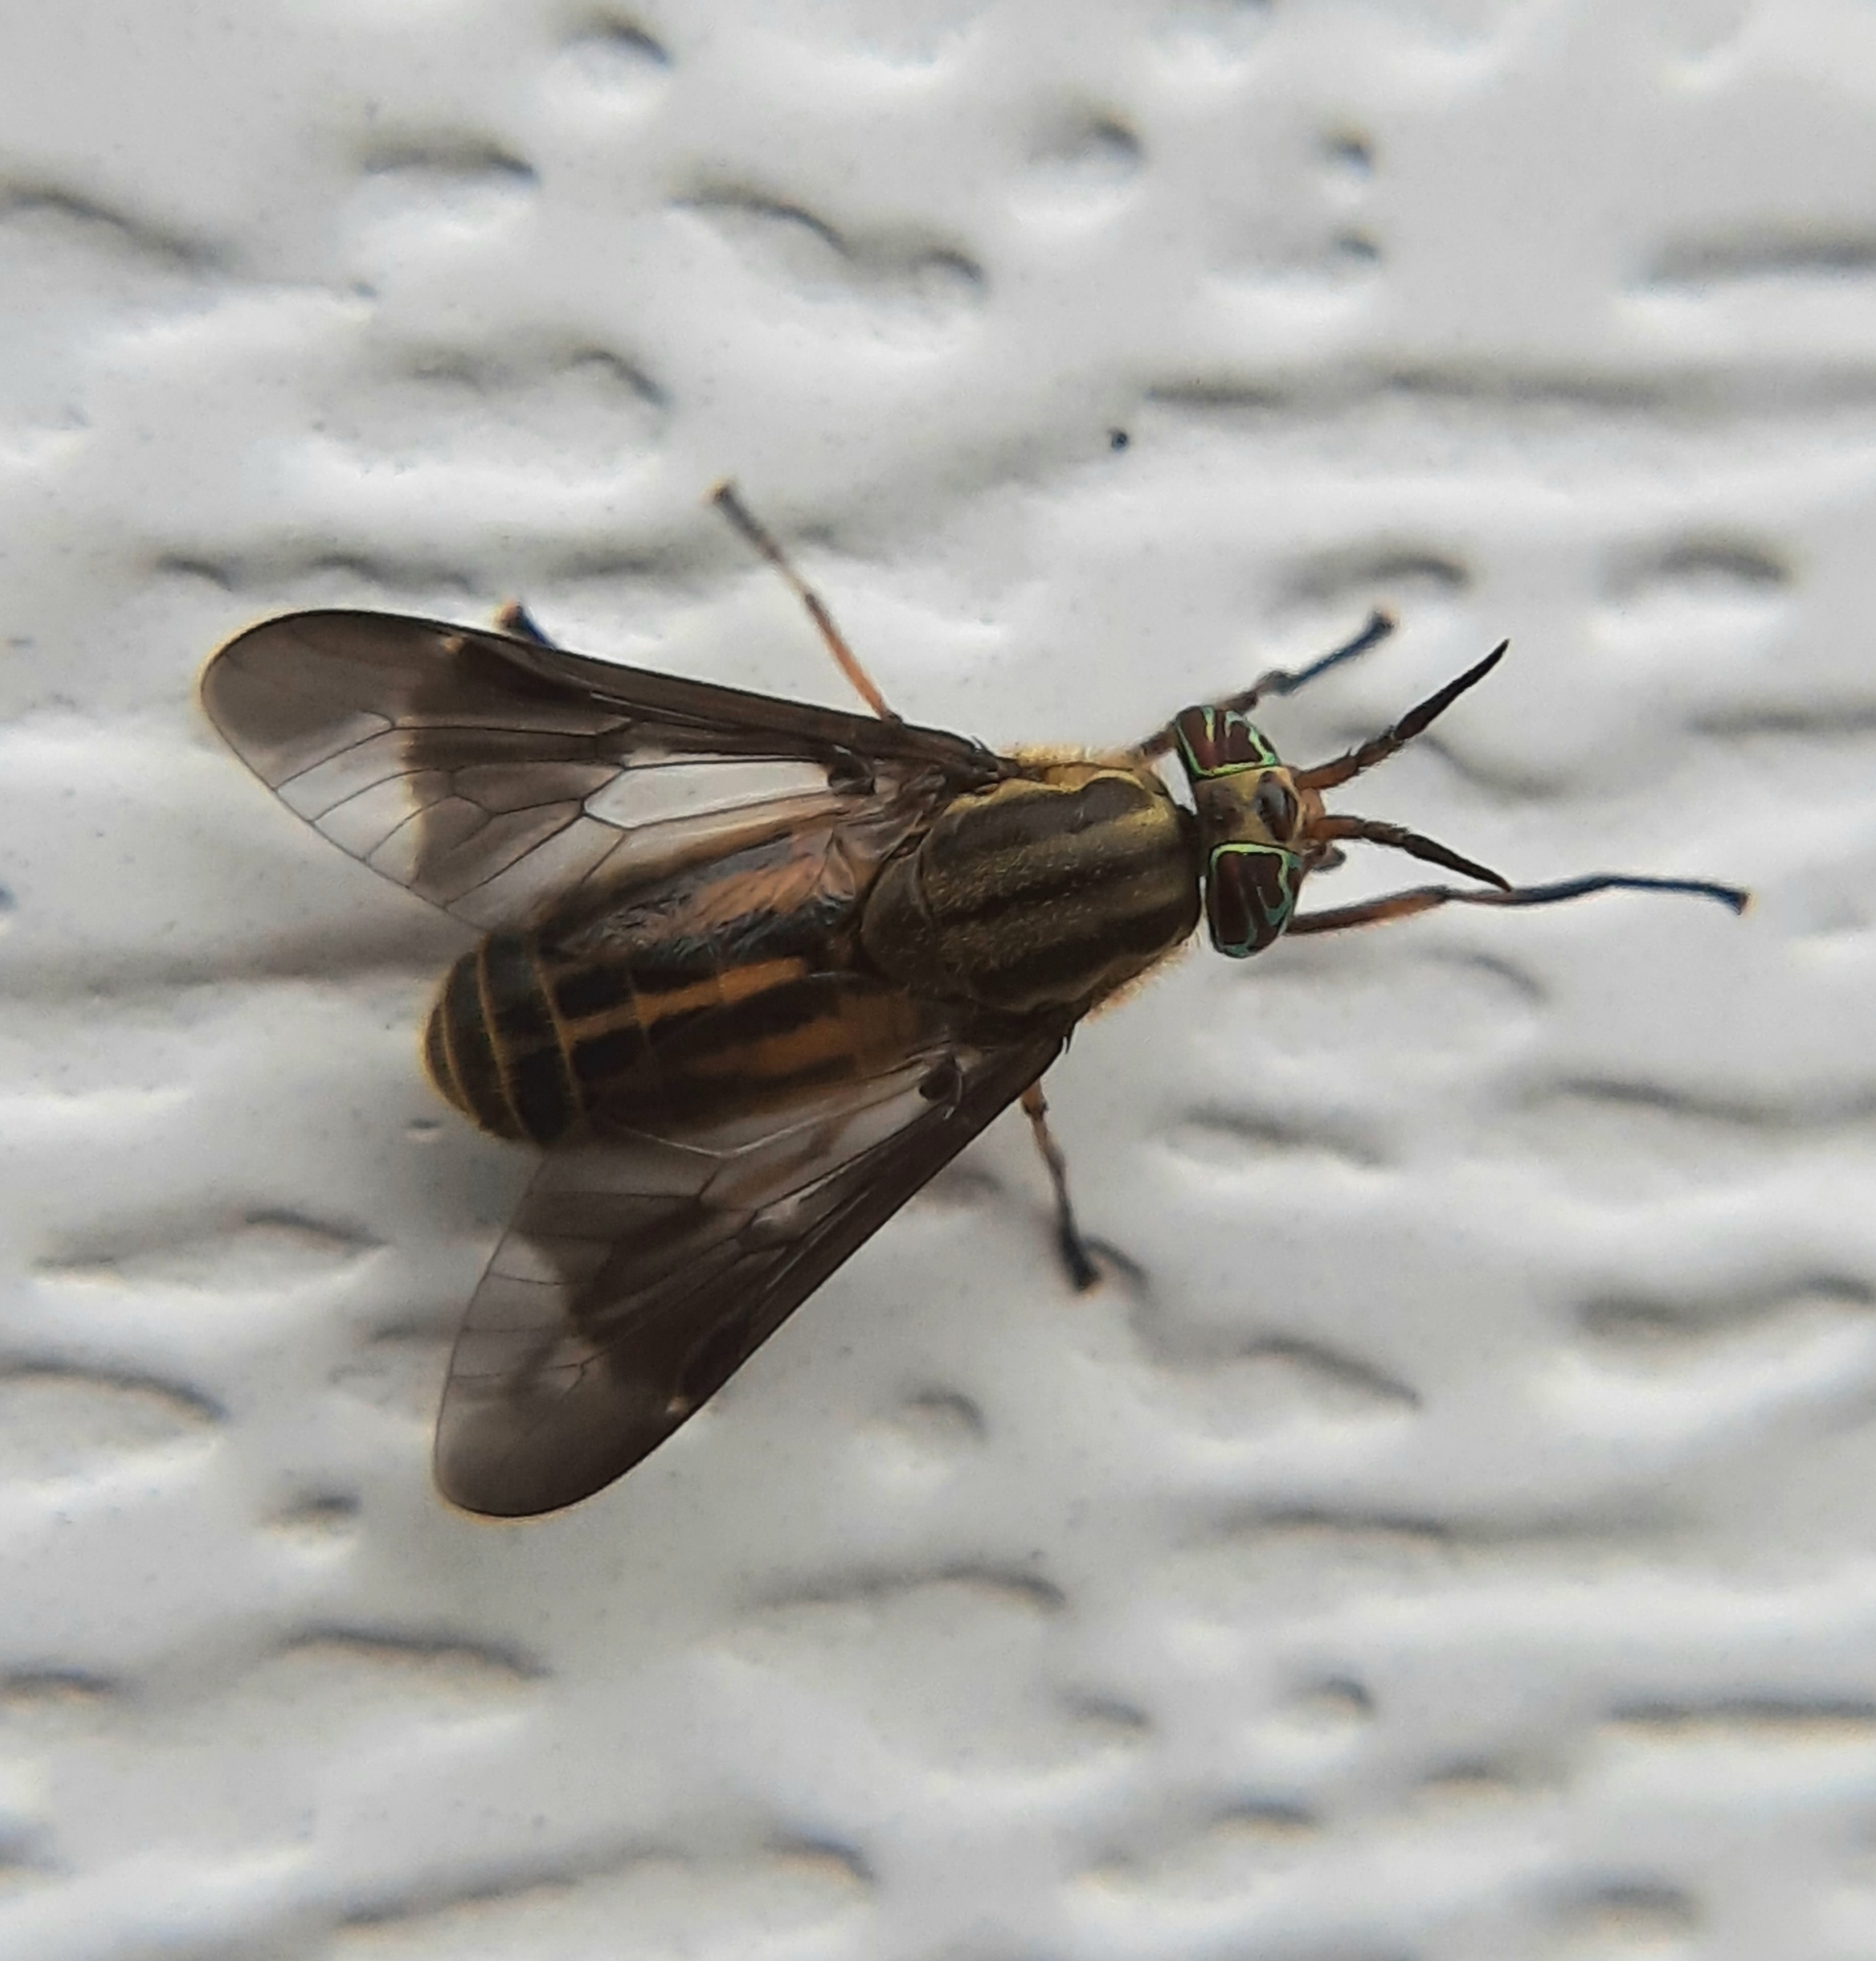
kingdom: Animalia
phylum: Arthropoda
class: Insecta
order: Diptera
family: Tabanidae
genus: Chrysops
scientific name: Chrysops aberrans
